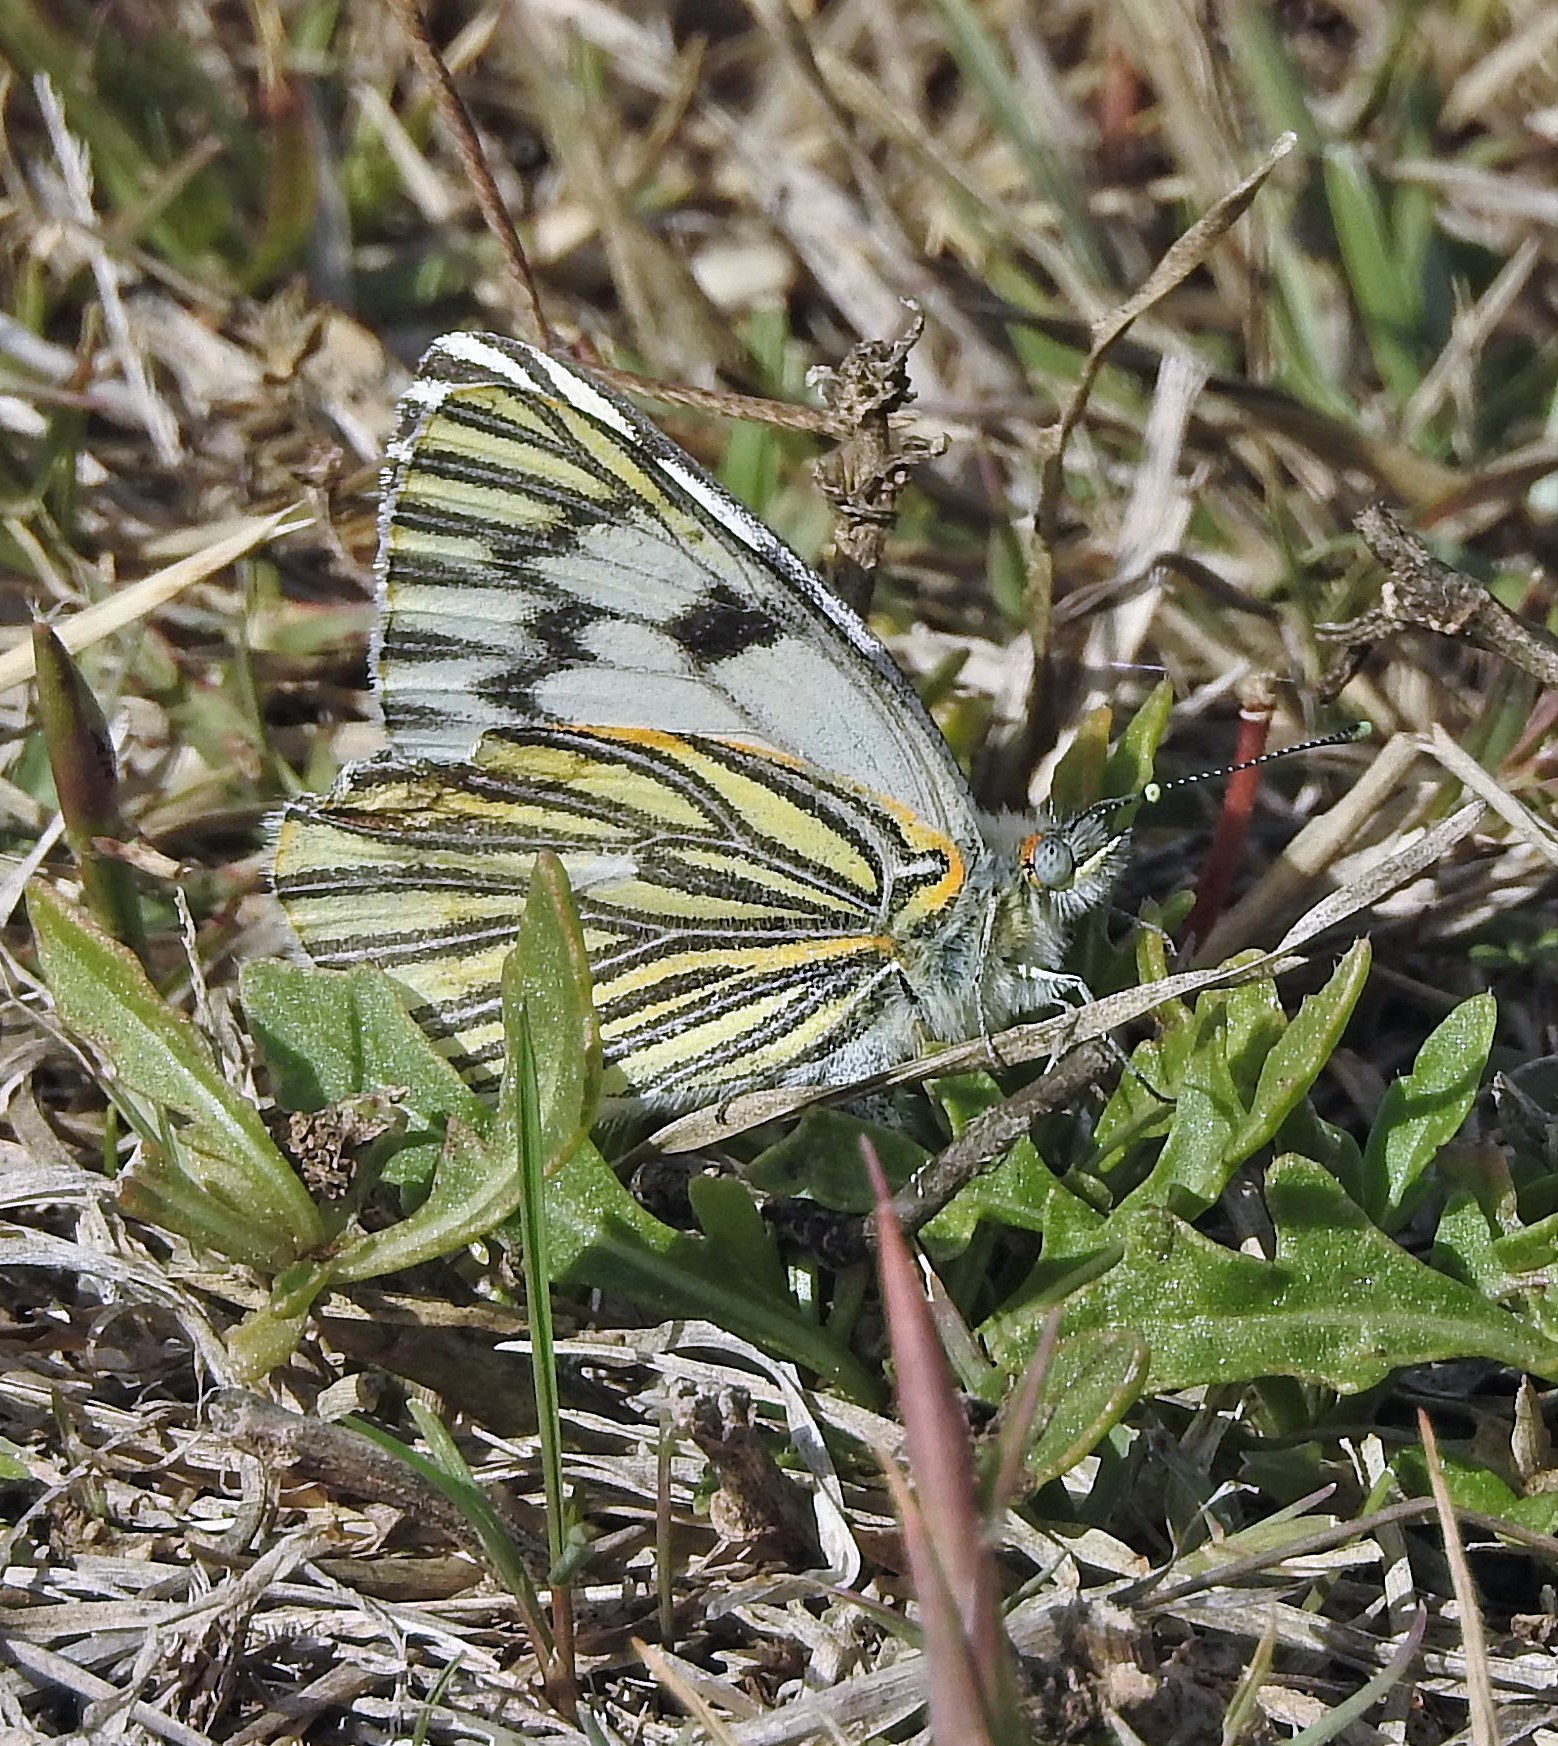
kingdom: Animalia
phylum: Arthropoda
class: Insecta
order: Lepidoptera
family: Pieridae
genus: Tatochila
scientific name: Tatochila mercedis
